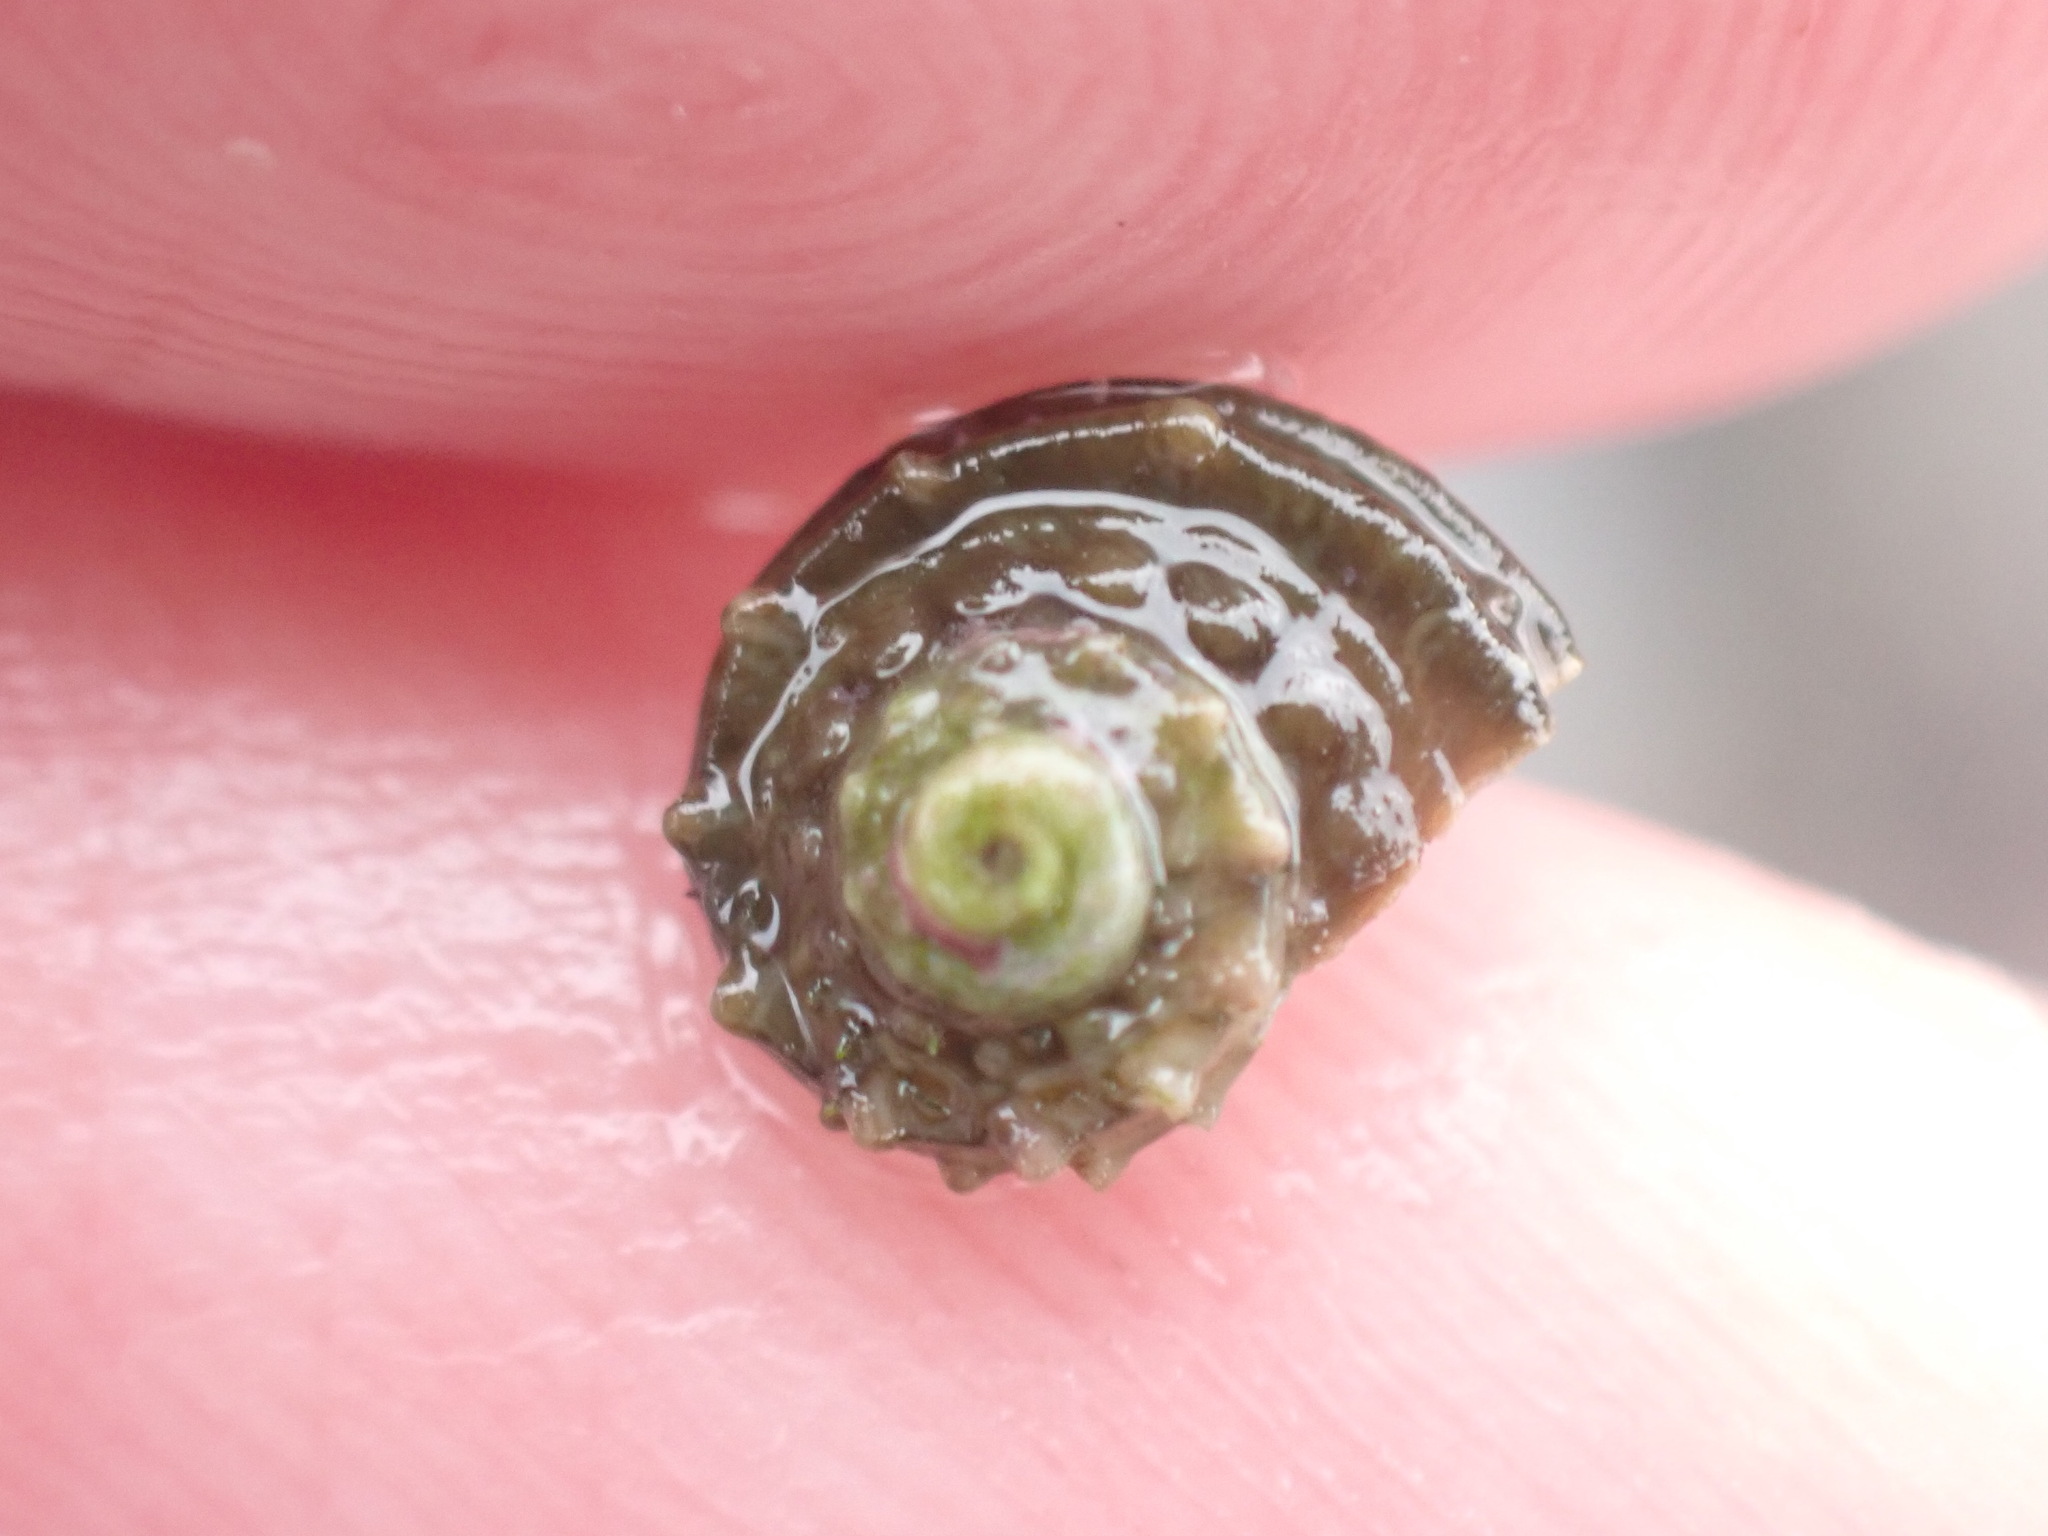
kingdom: Animalia
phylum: Mollusca
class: Gastropoda
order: Trochida
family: Turbinidae
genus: Lunella
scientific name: Lunella smaragda
